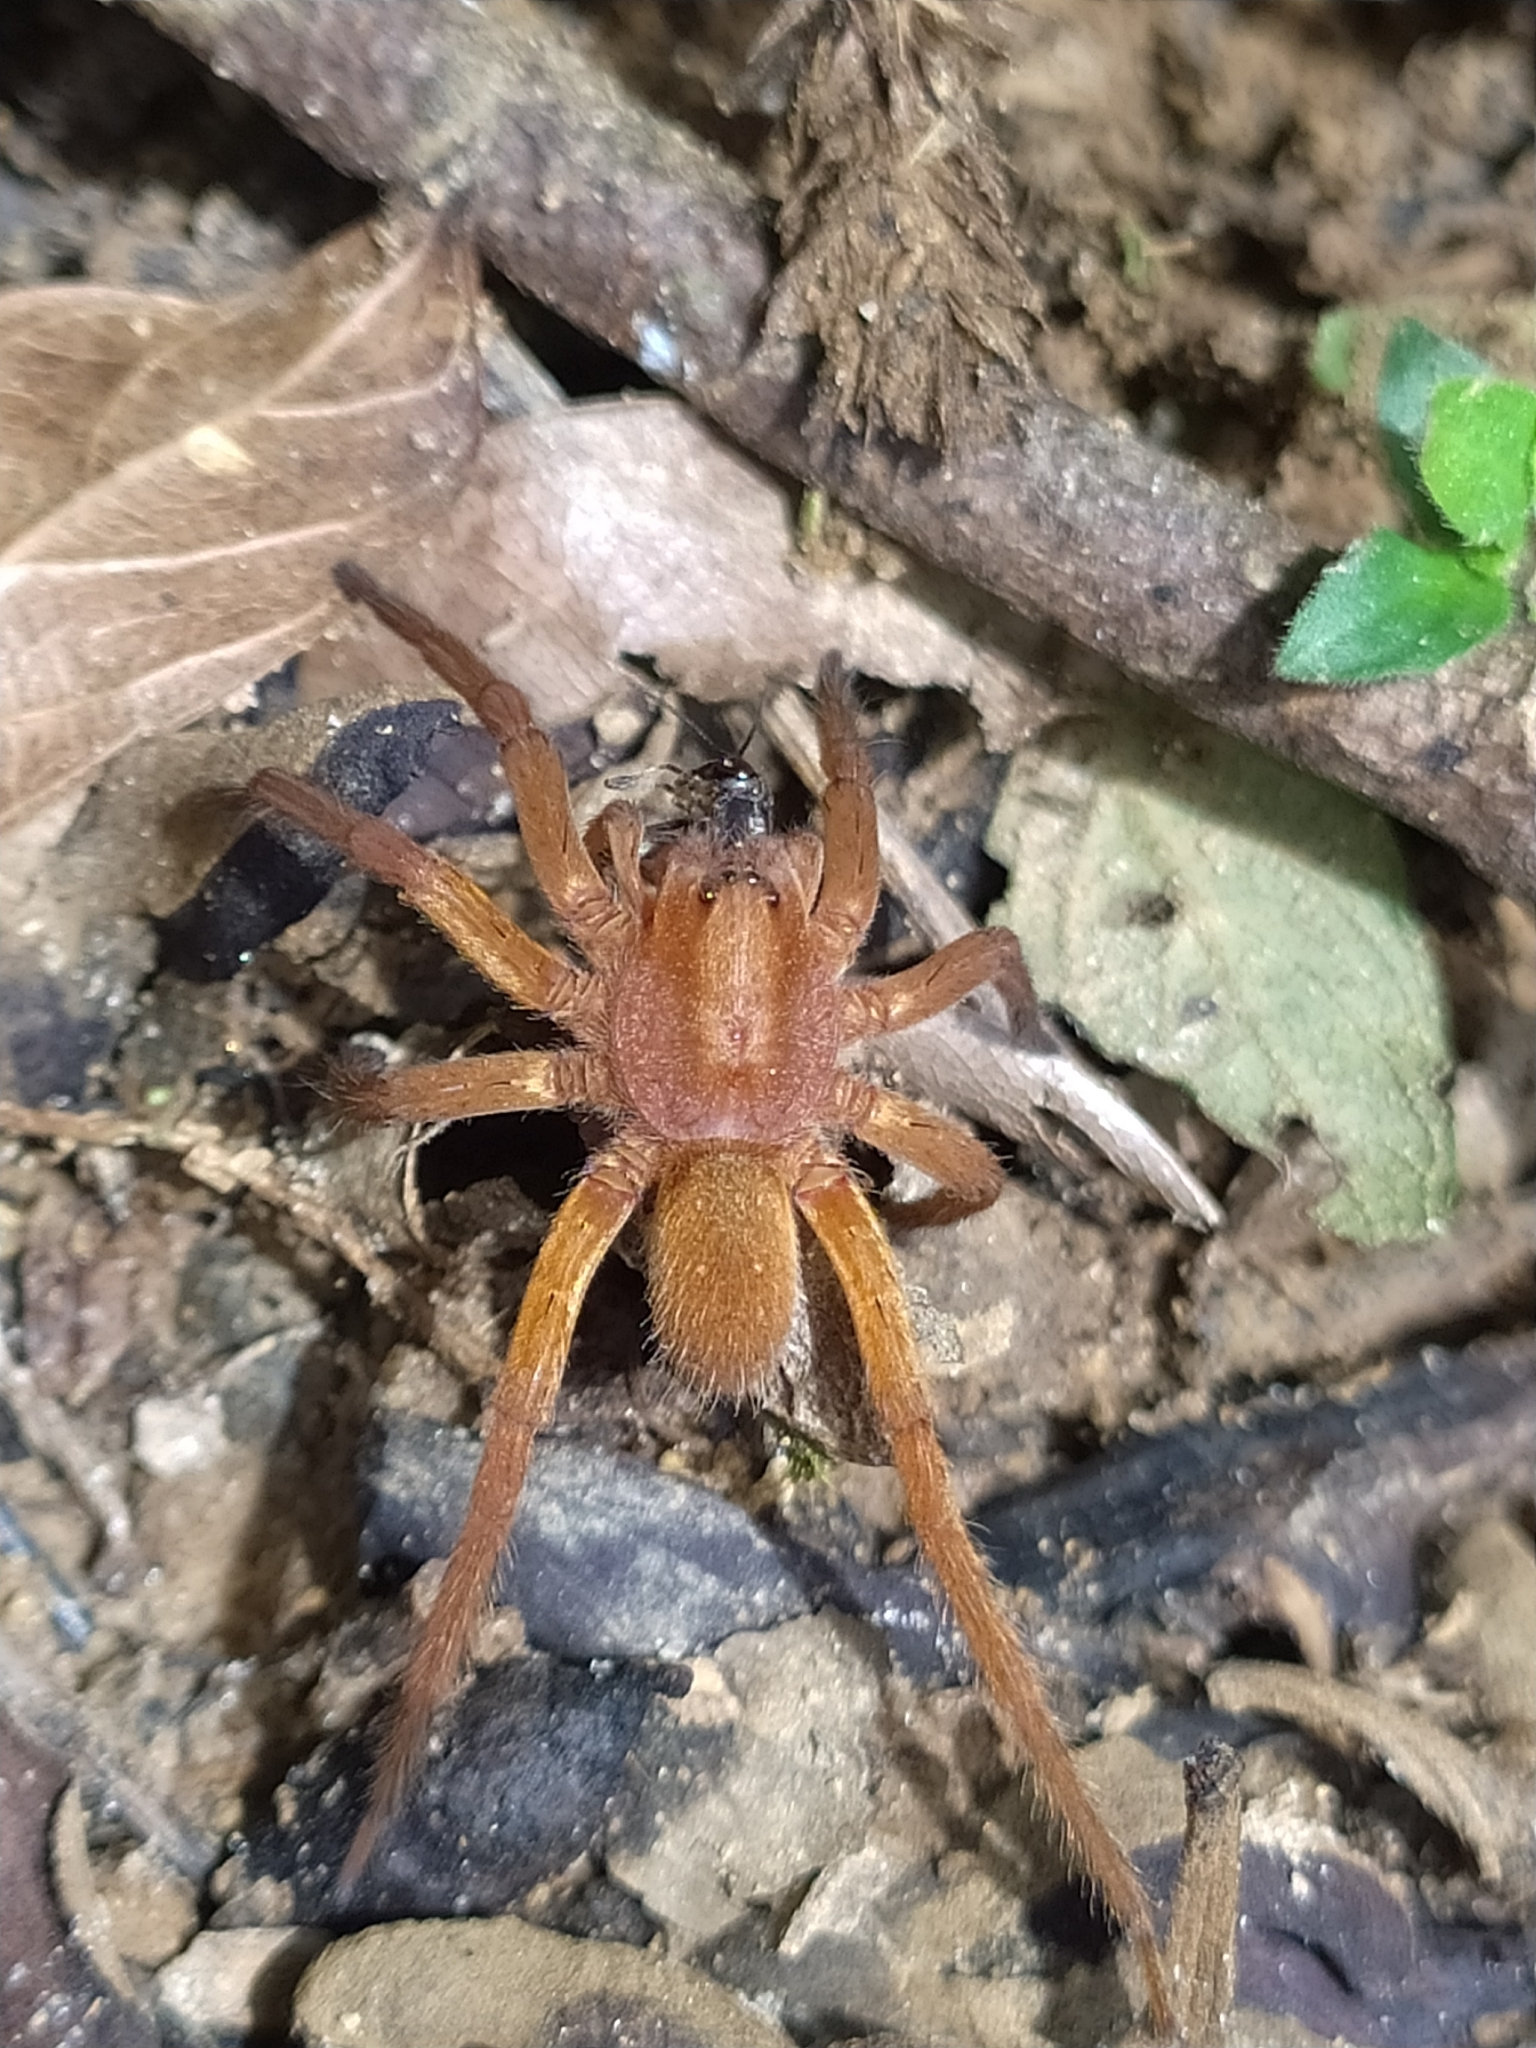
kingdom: Animalia
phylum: Arthropoda
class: Arachnida
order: Araneae
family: Ctenidae
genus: Ancylometes
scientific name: Ancylometes
